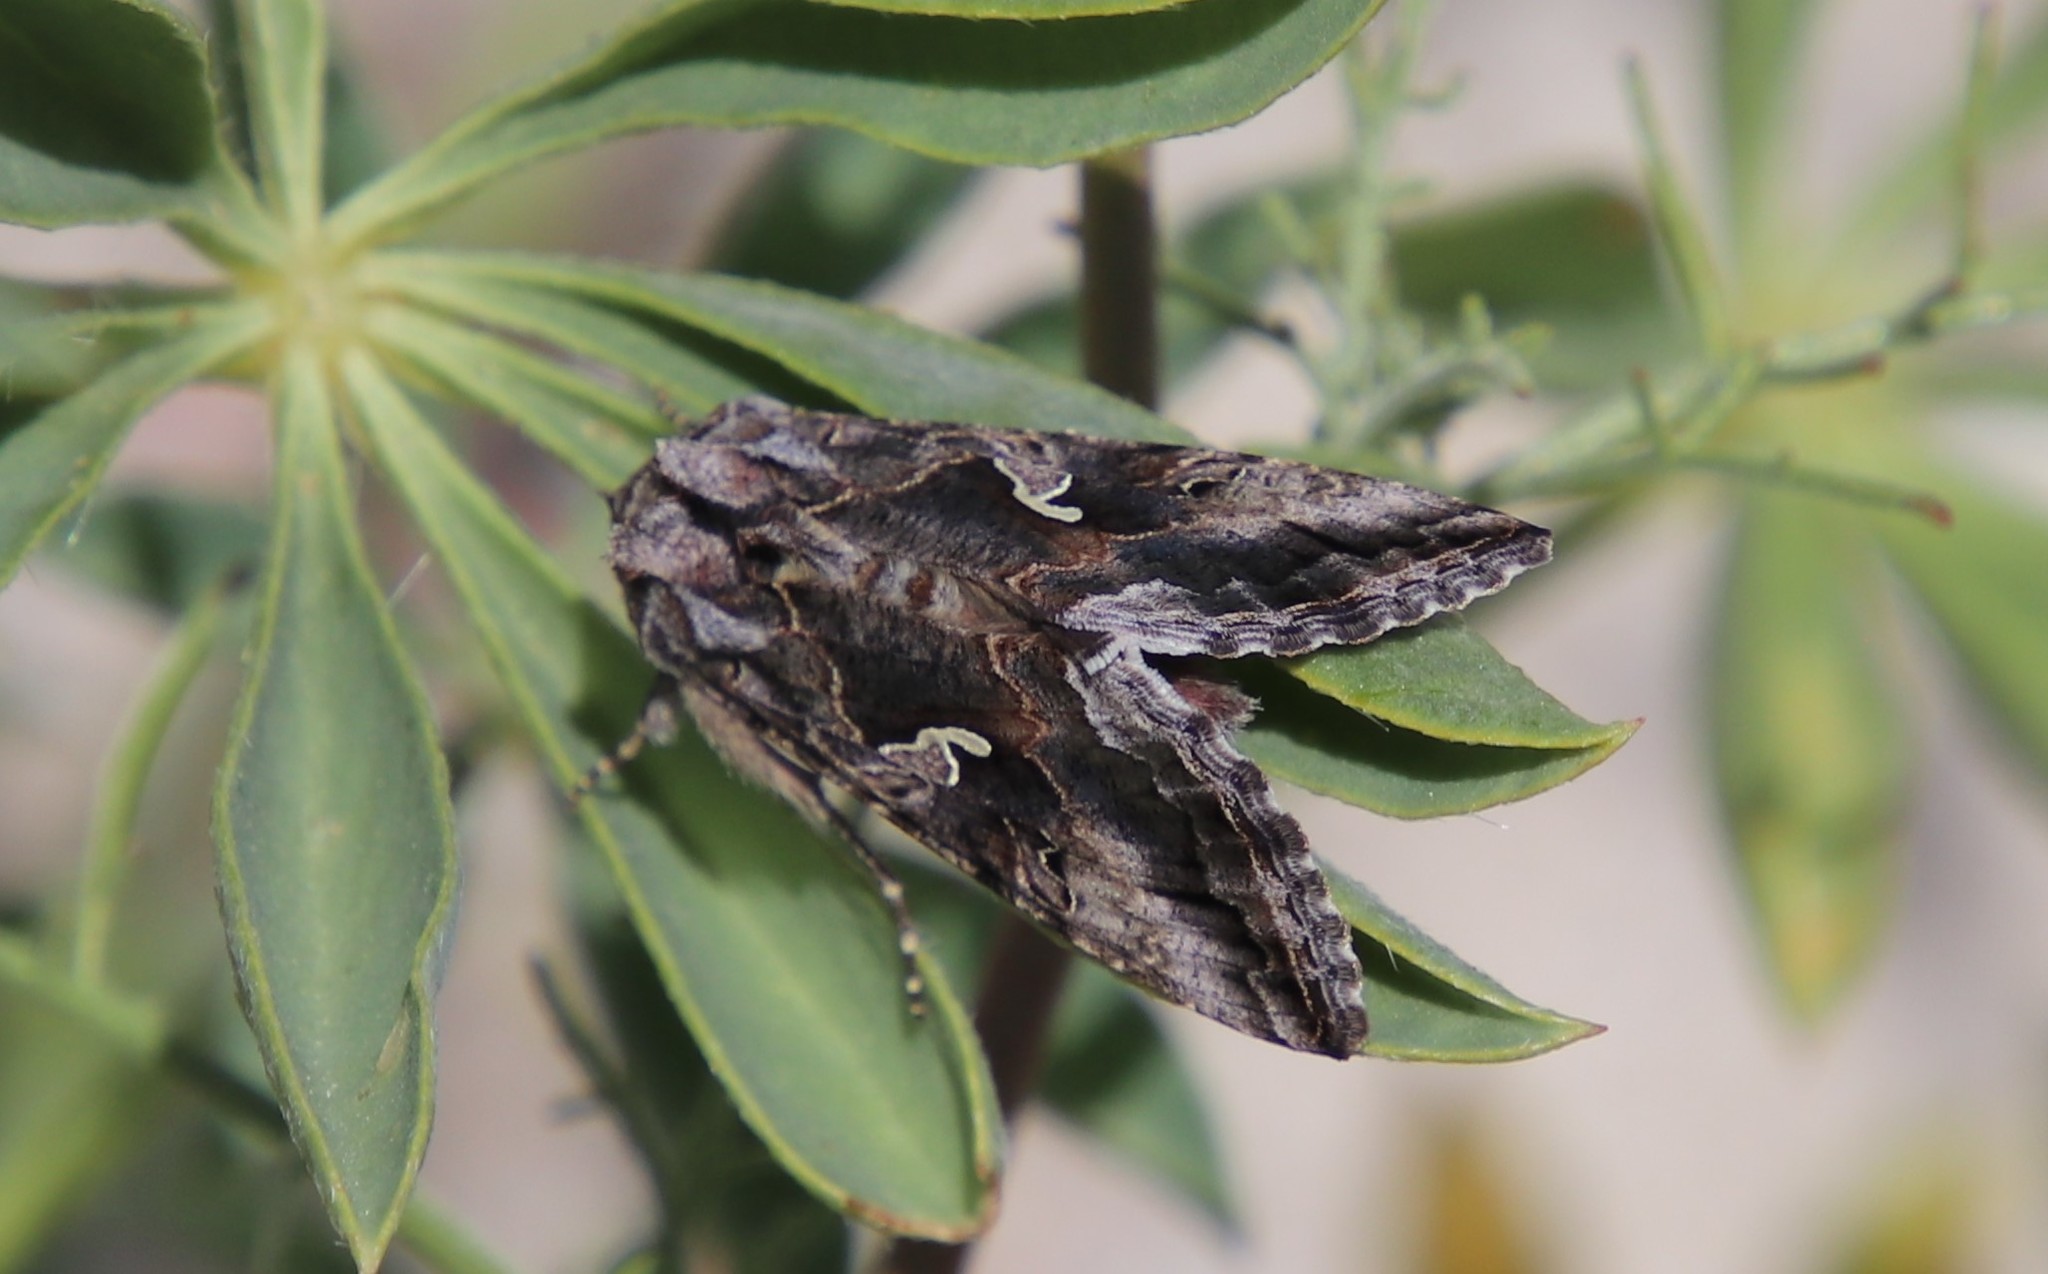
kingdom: Animalia
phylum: Arthropoda
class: Insecta
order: Lepidoptera
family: Noctuidae
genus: Autographa
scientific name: Autographa californica
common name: Alfalfa looper
